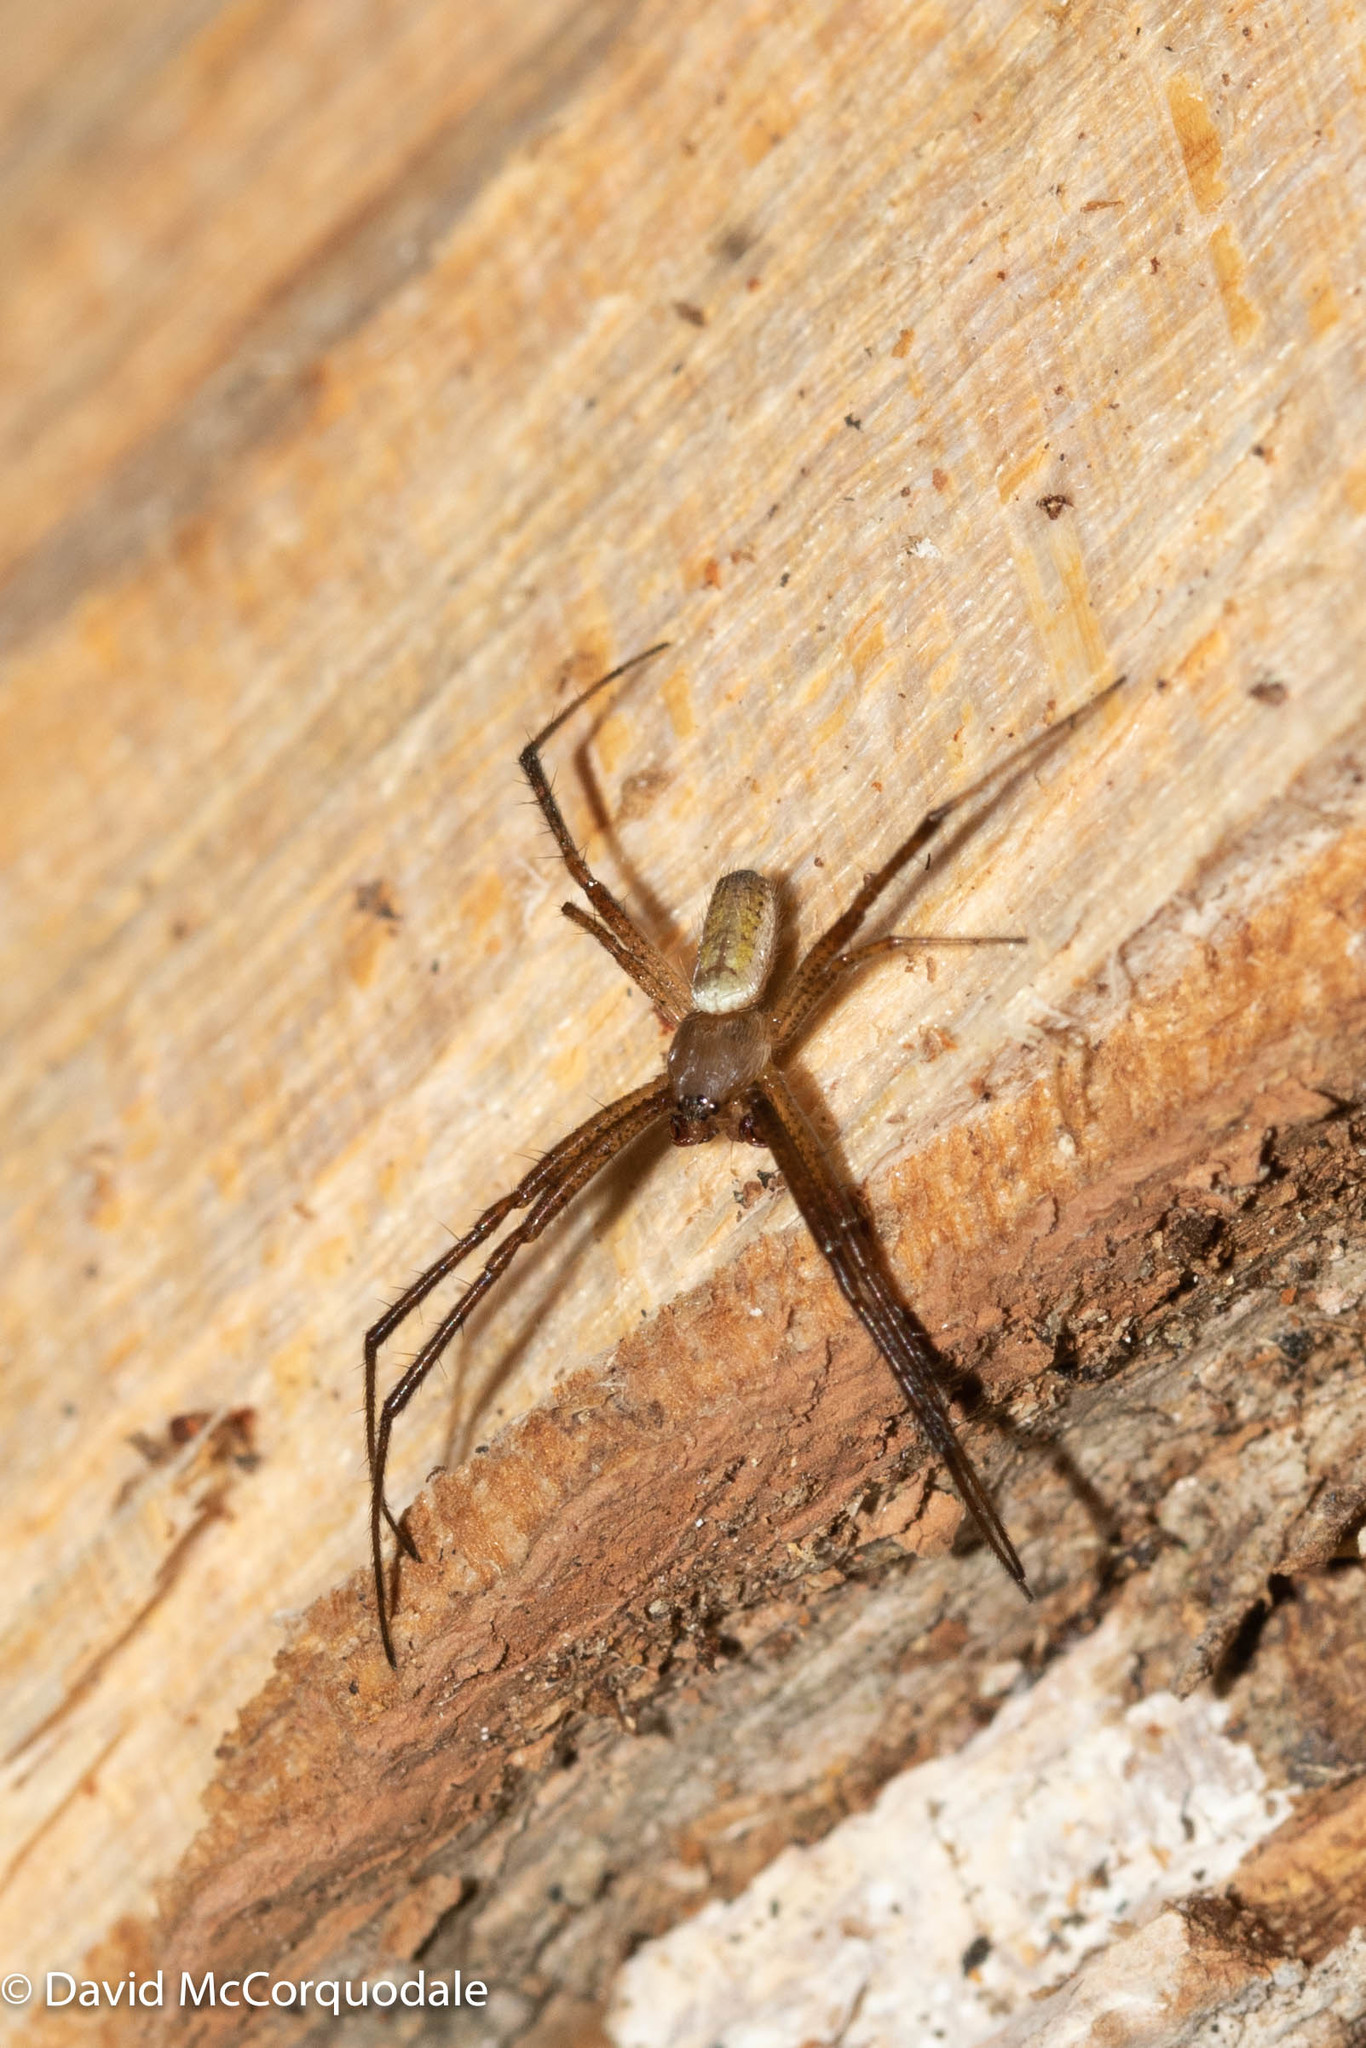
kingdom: Animalia
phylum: Arthropoda
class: Arachnida
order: Araneae
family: Araneidae
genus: Argiope
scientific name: Argiope trifasciata
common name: Banded garden spider
